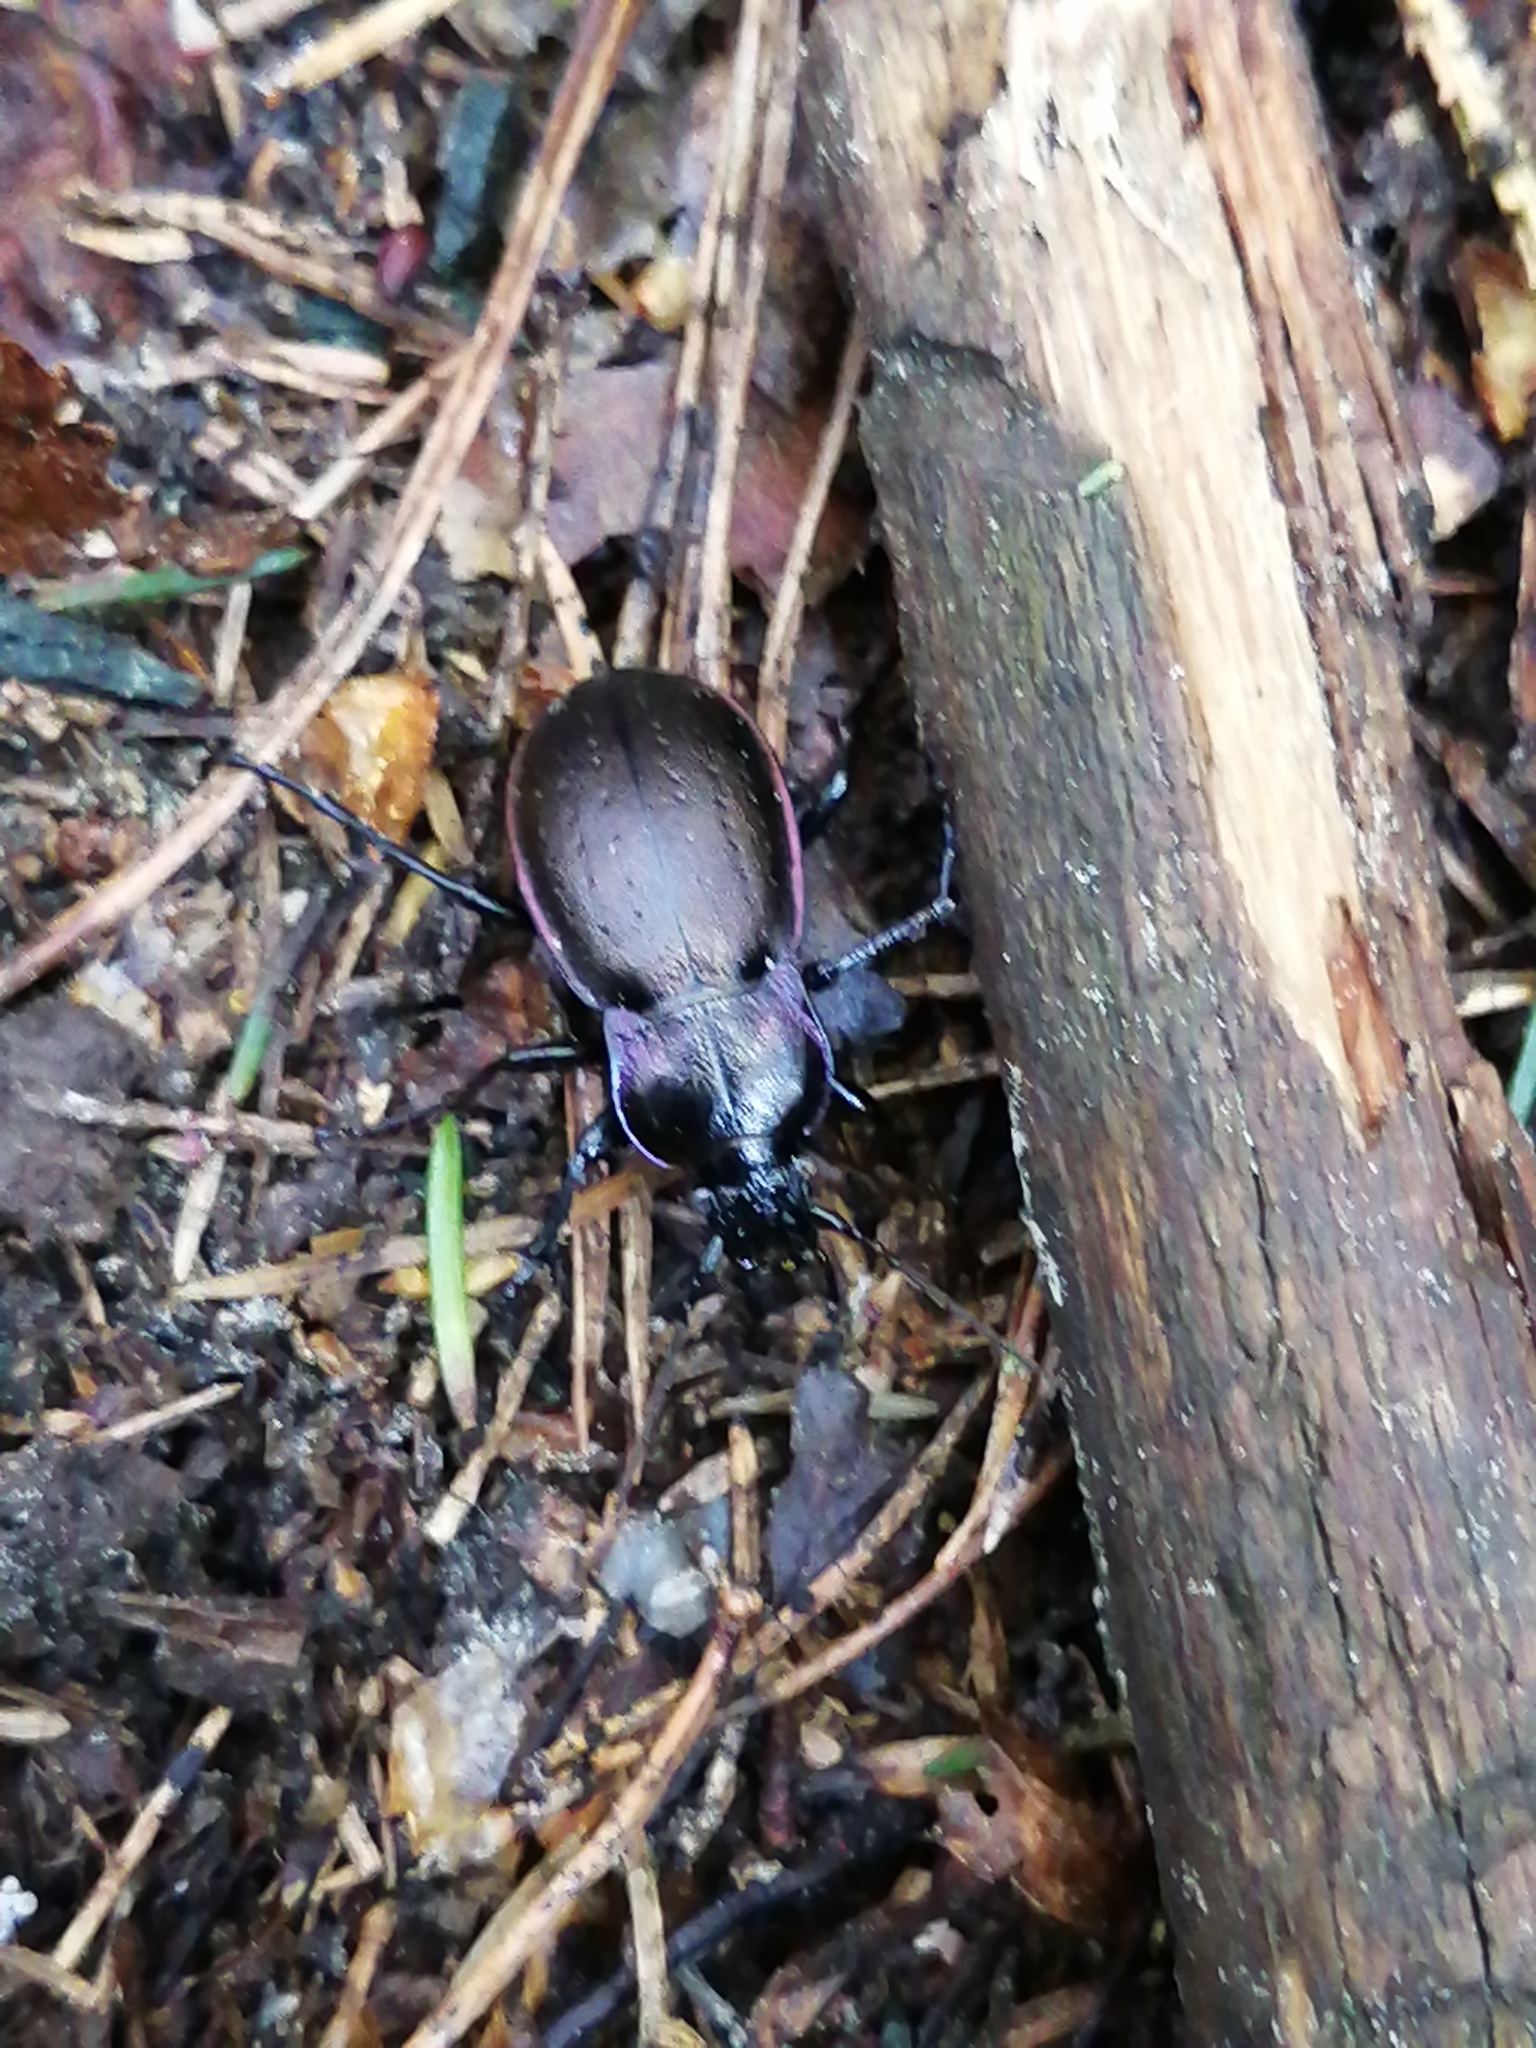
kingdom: Animalia
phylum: Arthropoda
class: Insecta
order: Coleoptera
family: Carabidae
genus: Carabus
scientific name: Carabus nemoralis
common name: European ground beetle
